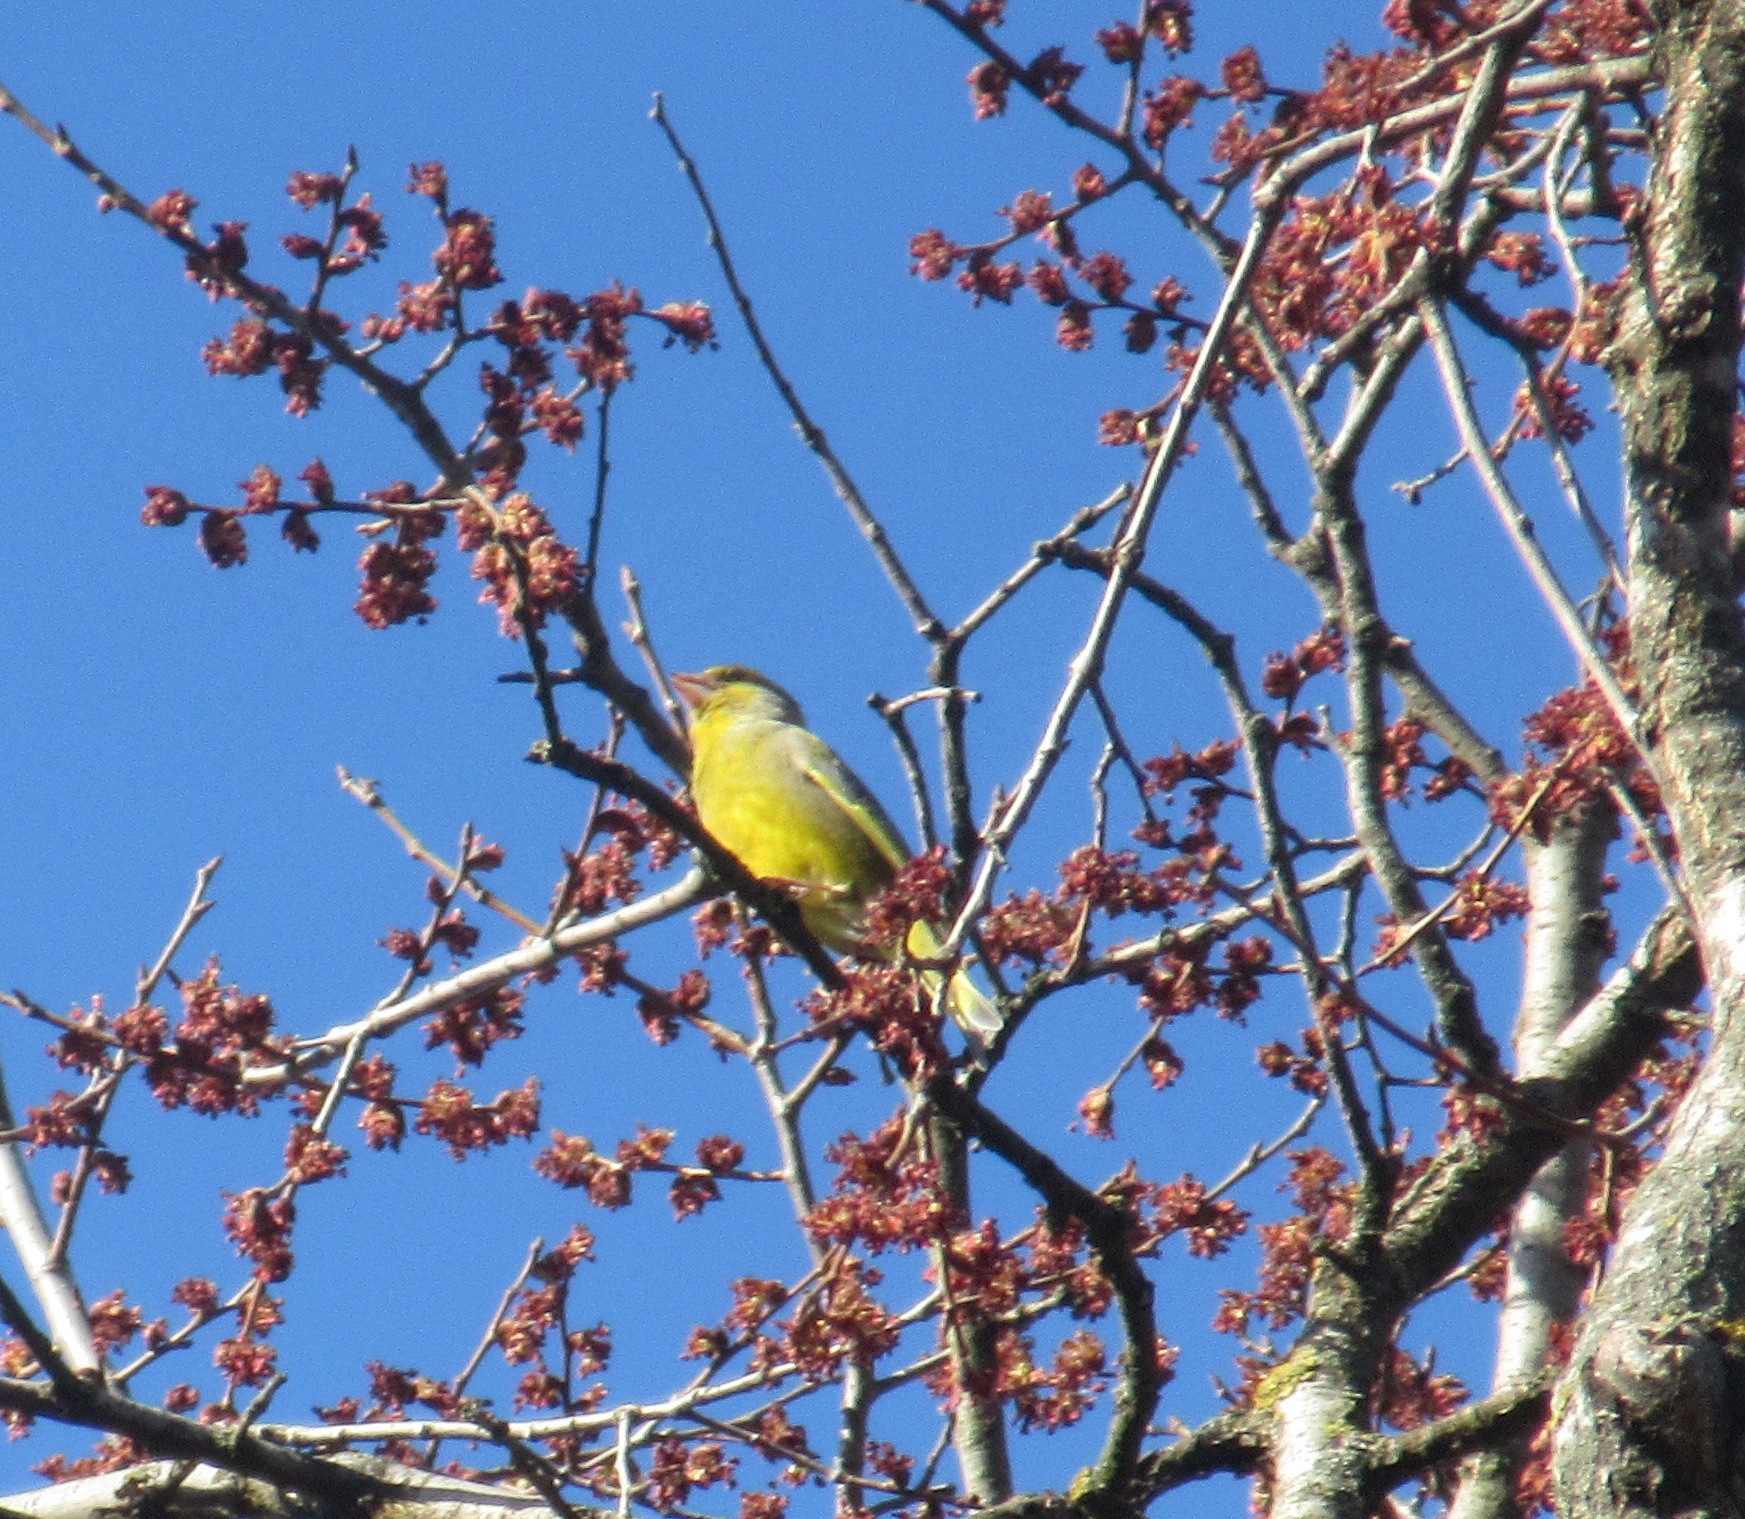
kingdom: Plantae
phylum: Tracheophyta
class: Liliopsida
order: Poales
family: Poaceae
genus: Chloris
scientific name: Chloris chloris
